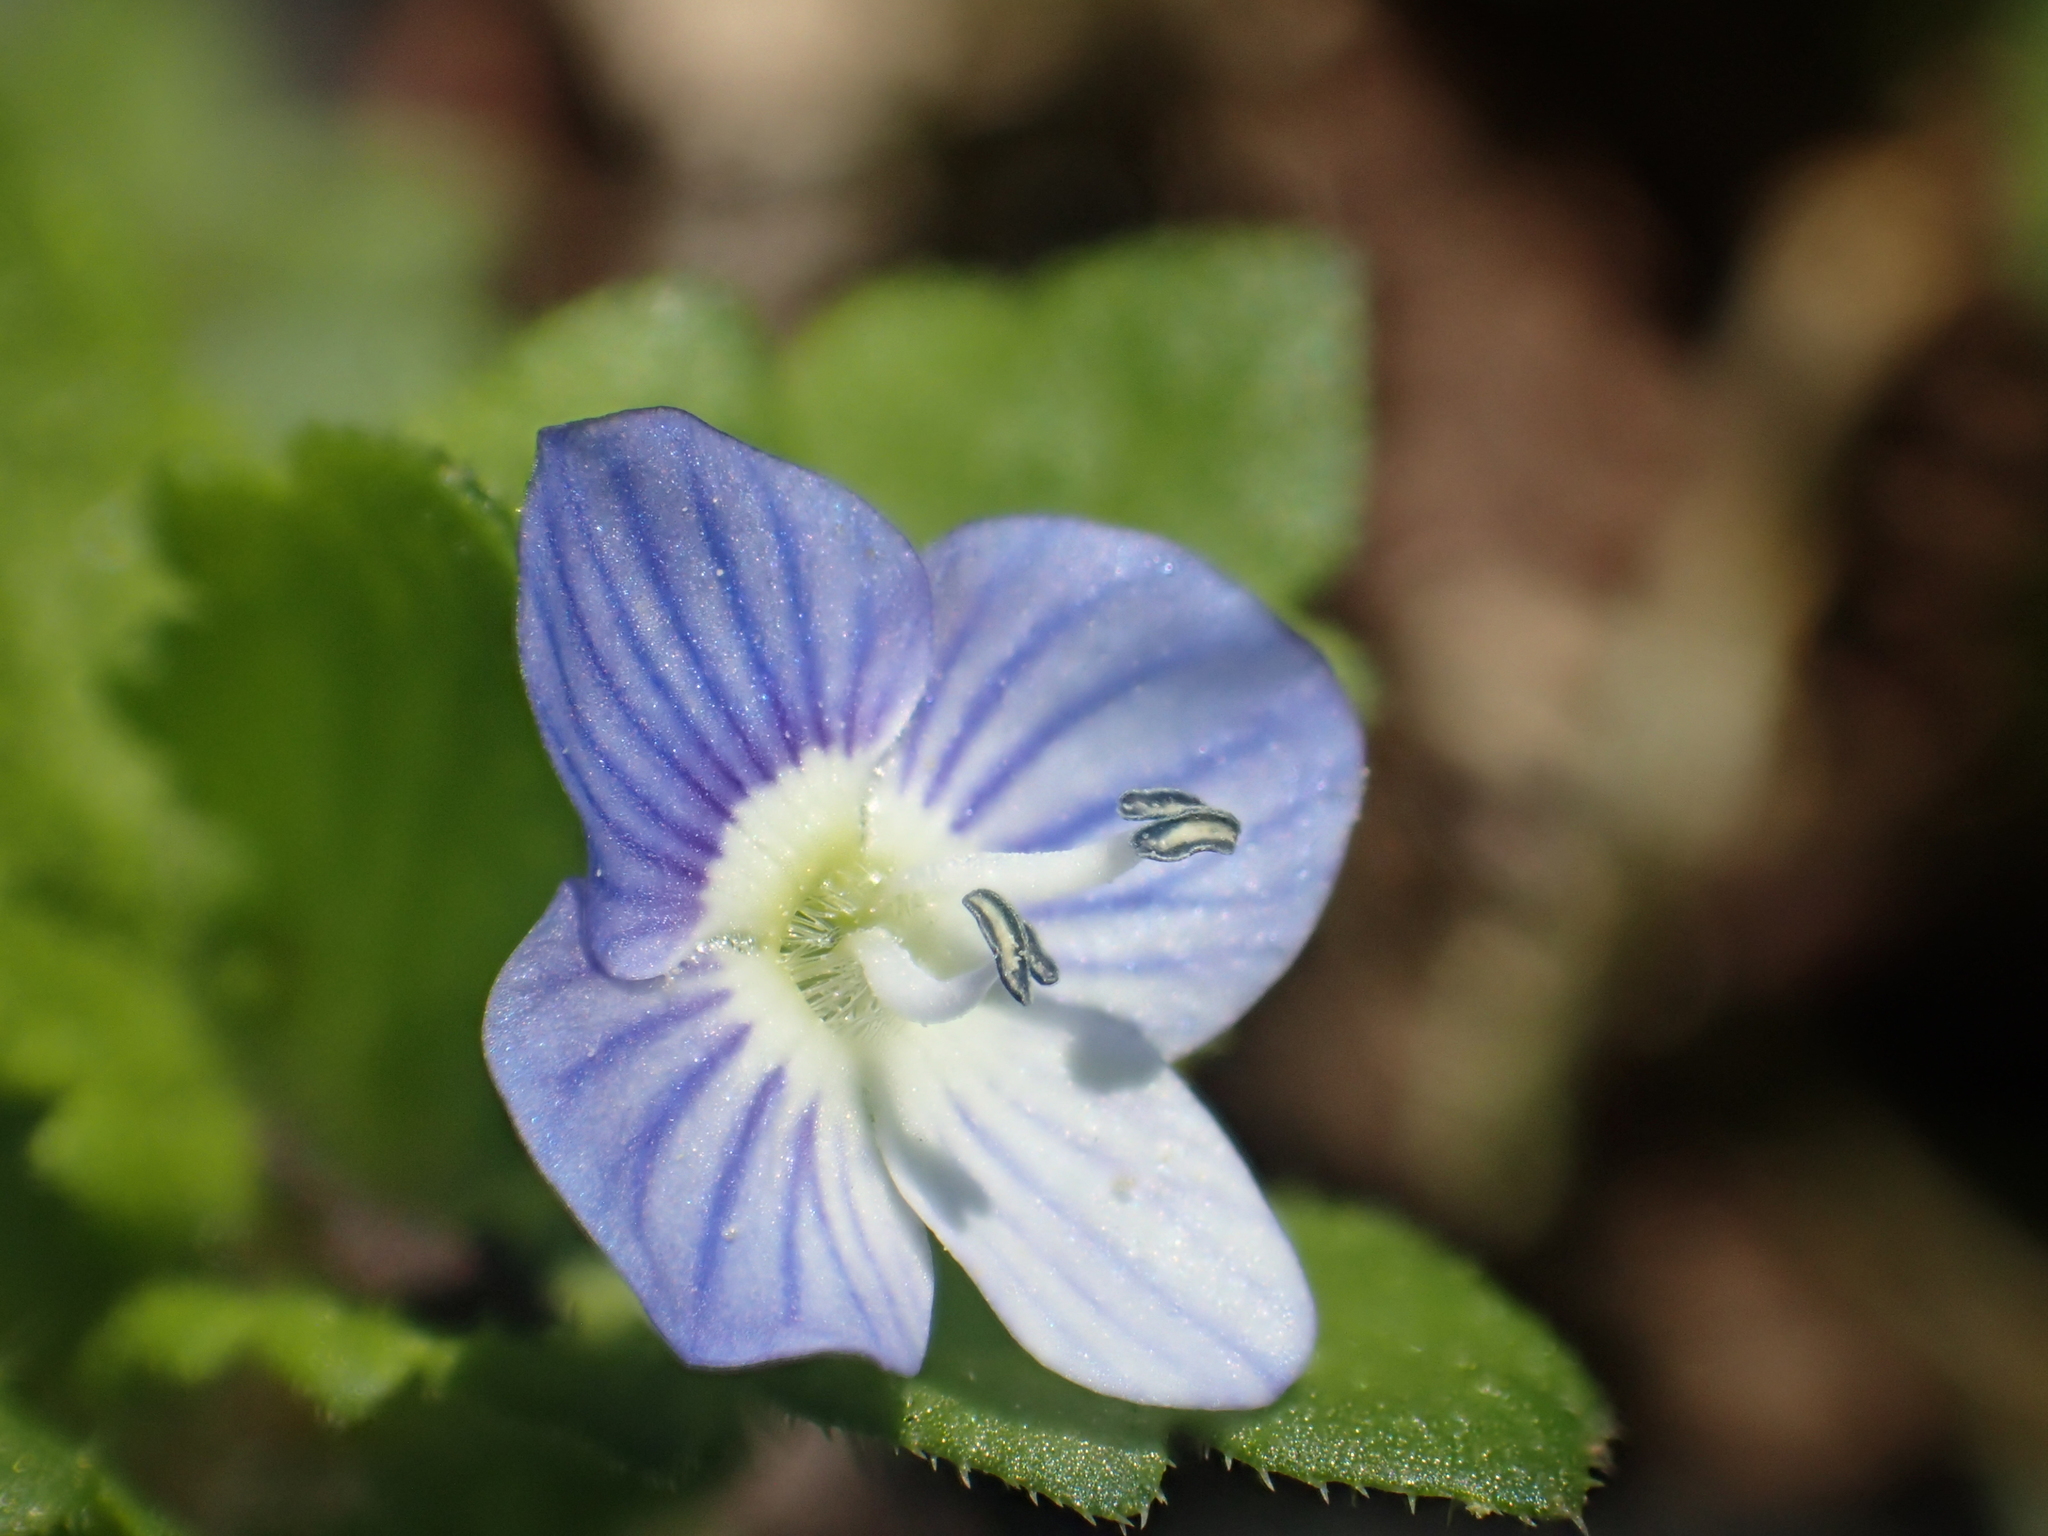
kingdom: Plantae
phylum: Tracheophyta
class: Magnoliopsida
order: Lamiales
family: Plantaginaceae
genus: Veronica
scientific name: Veronica persica
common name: Common field-speedwell
